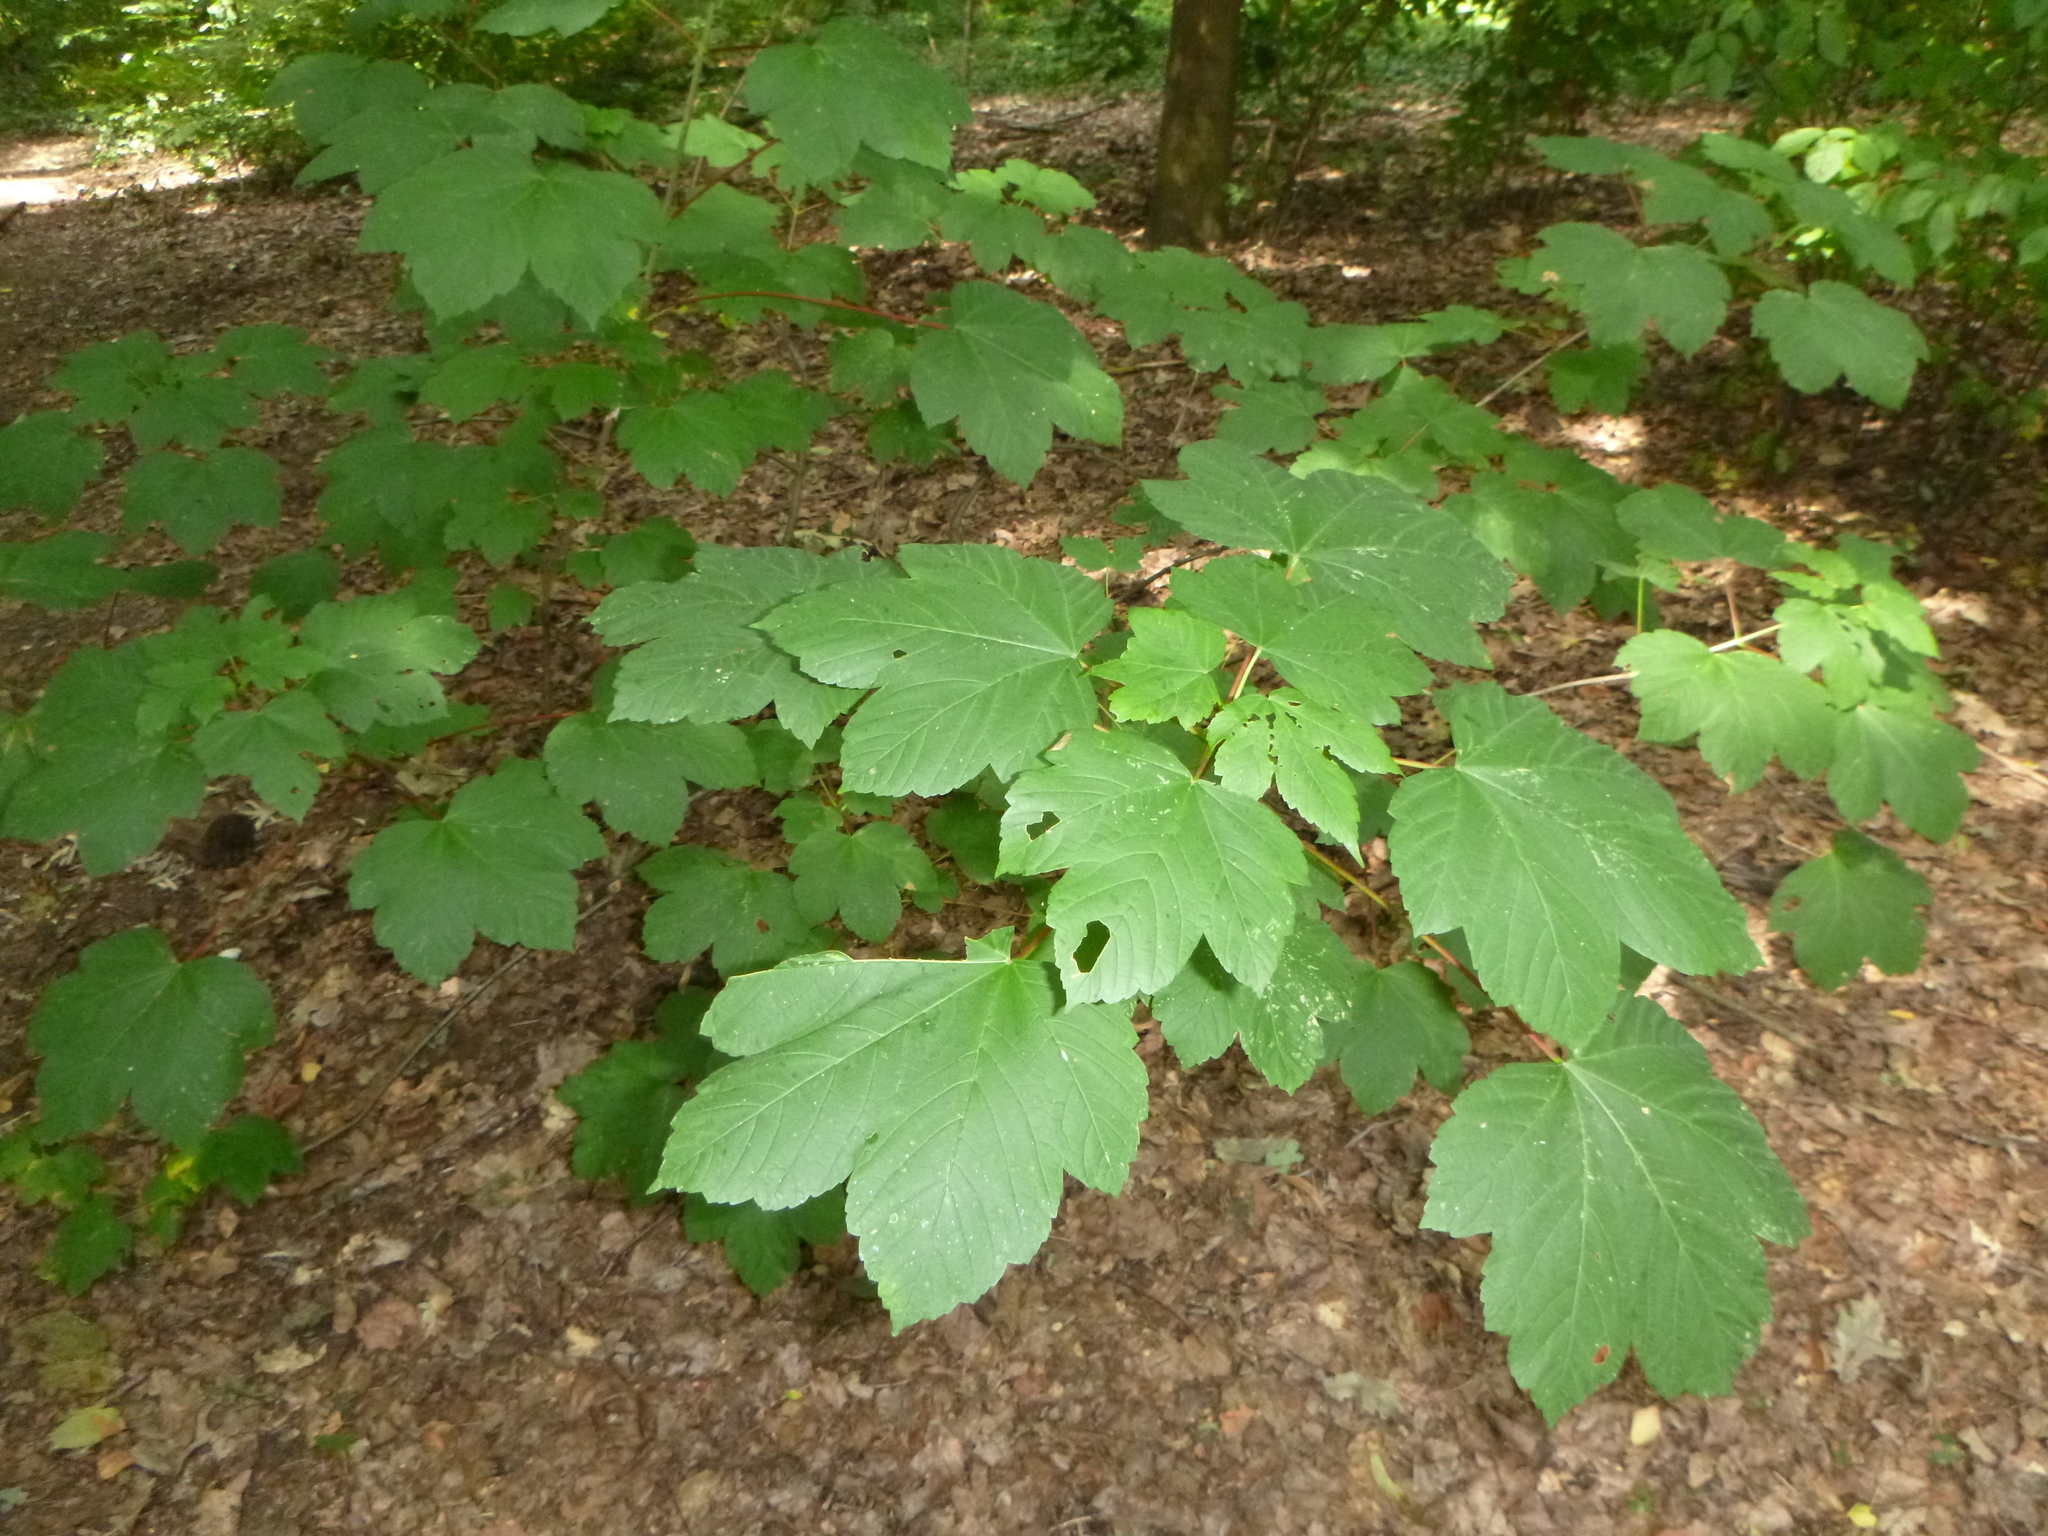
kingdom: Plantae
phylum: Tracheophyta
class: Magnoliopsida
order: Sapindales
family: Sapindaceae
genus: Acer
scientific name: Acer pseudoplatanus
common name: Sycamore
